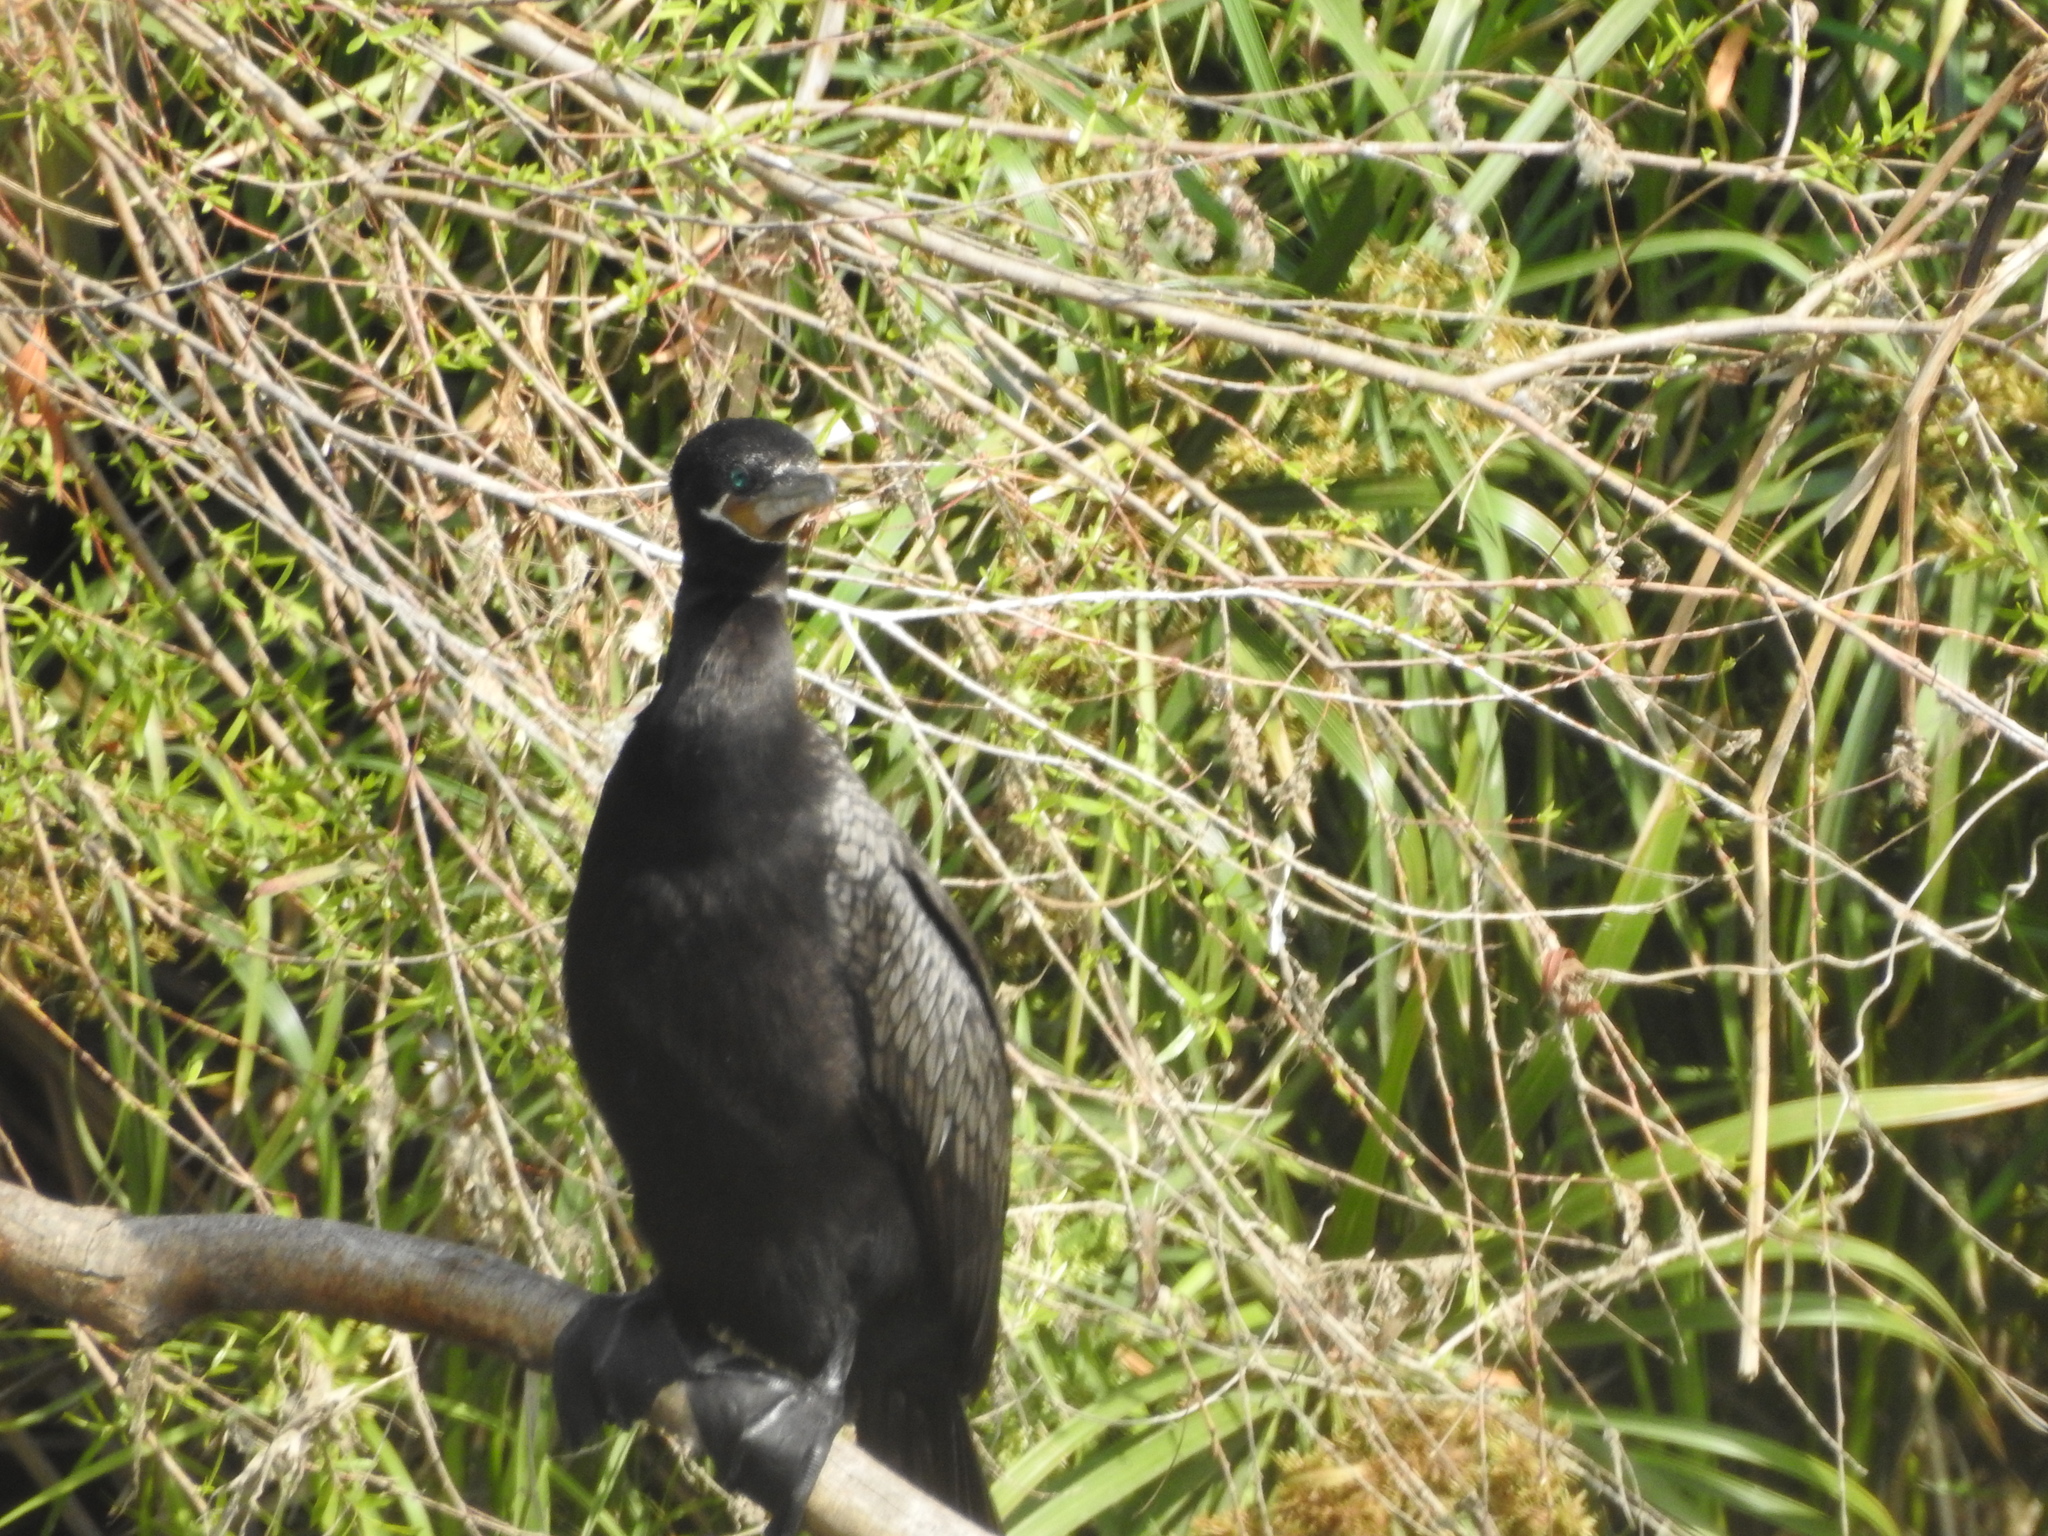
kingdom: Animalia
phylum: Chordata
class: Aves
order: Suliformes
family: Phalacrocoracidae
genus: Phalacrocorax
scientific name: Phalacrocorax brasilianus
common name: Neotropic cormorant
